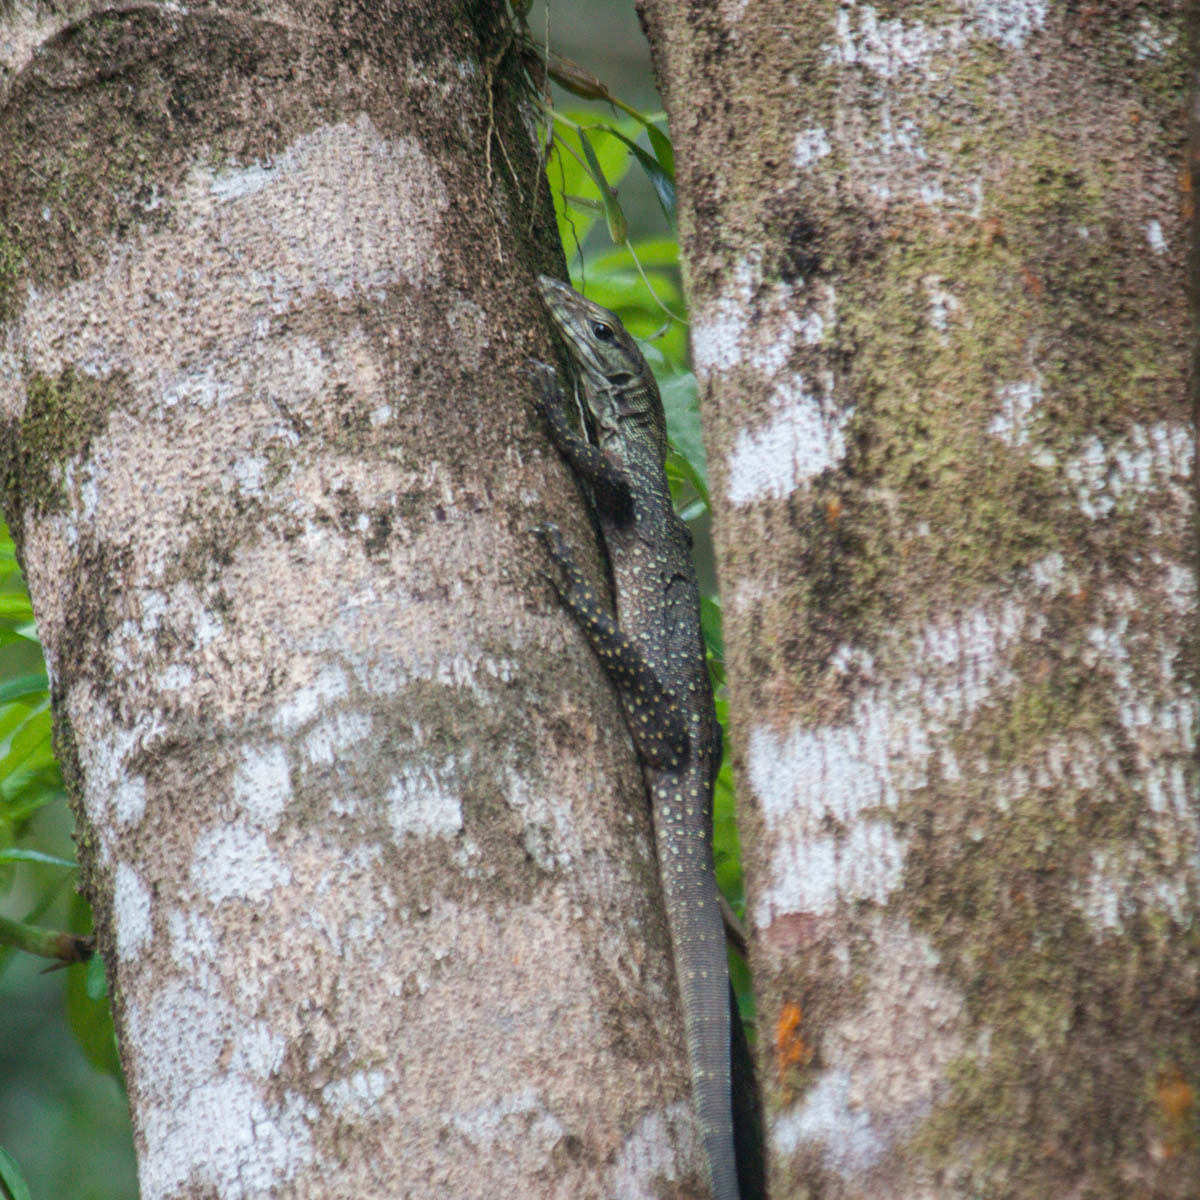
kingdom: Animalia
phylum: Chordata
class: Squamata
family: Varanidae
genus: Varanus
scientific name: Varanus nebulosus
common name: Clouded monitor
